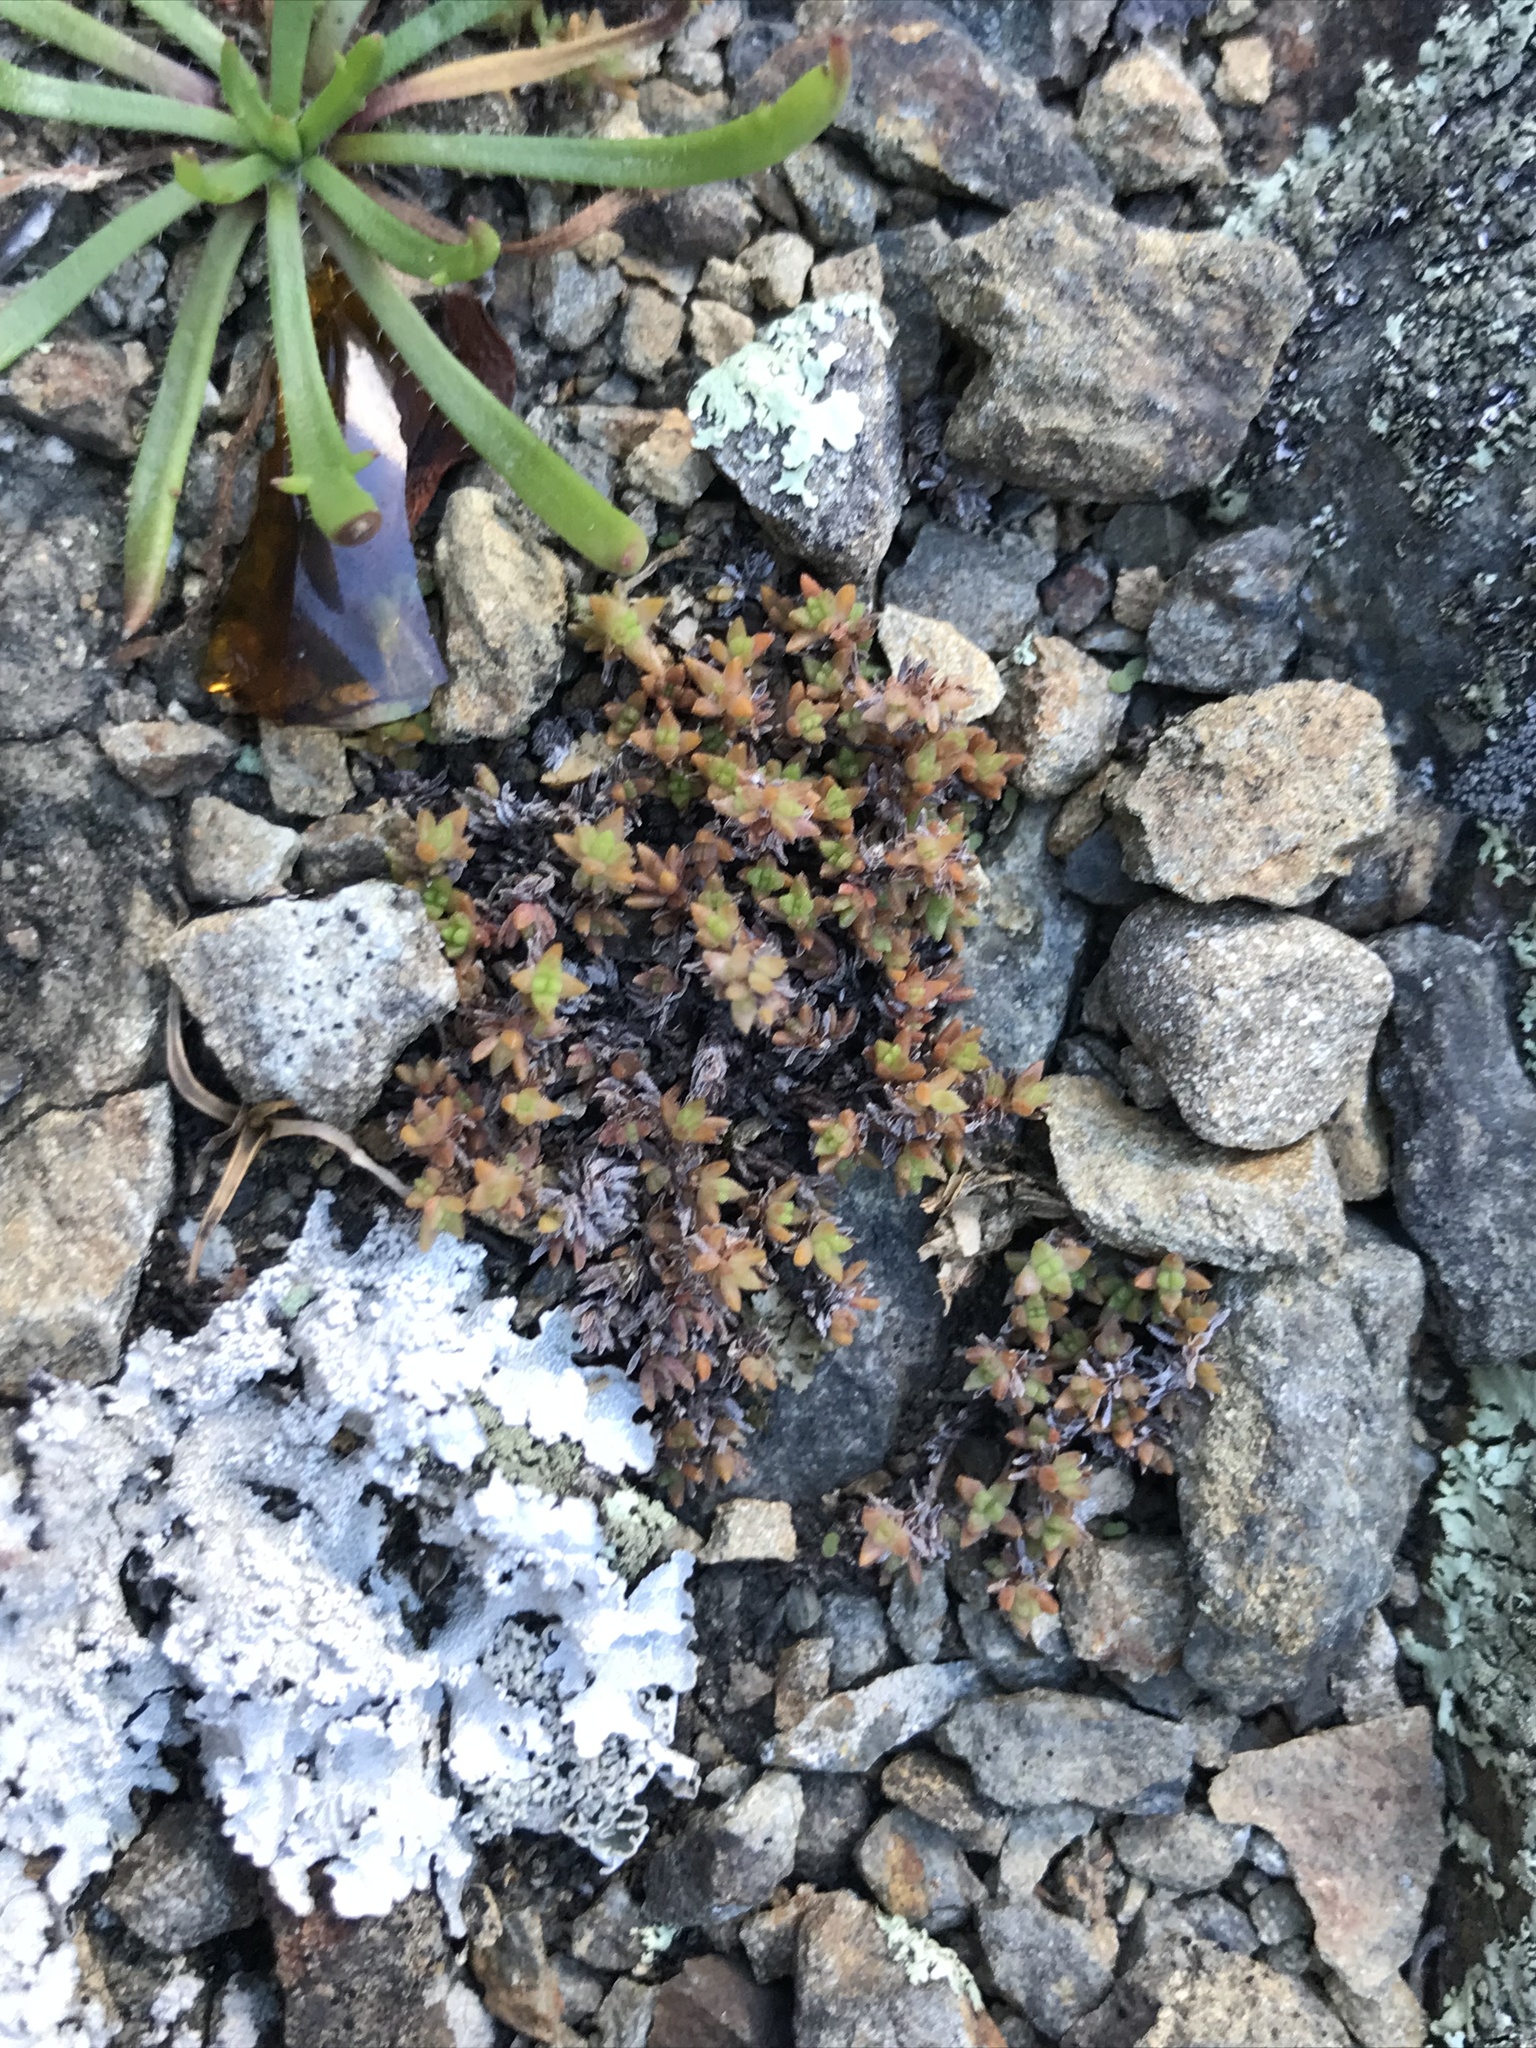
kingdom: Plantae
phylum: Tracheophyta
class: Magnoliopsida
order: Saxifragales
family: Crassulaceae
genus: Crassula
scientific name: Crassula moschata
